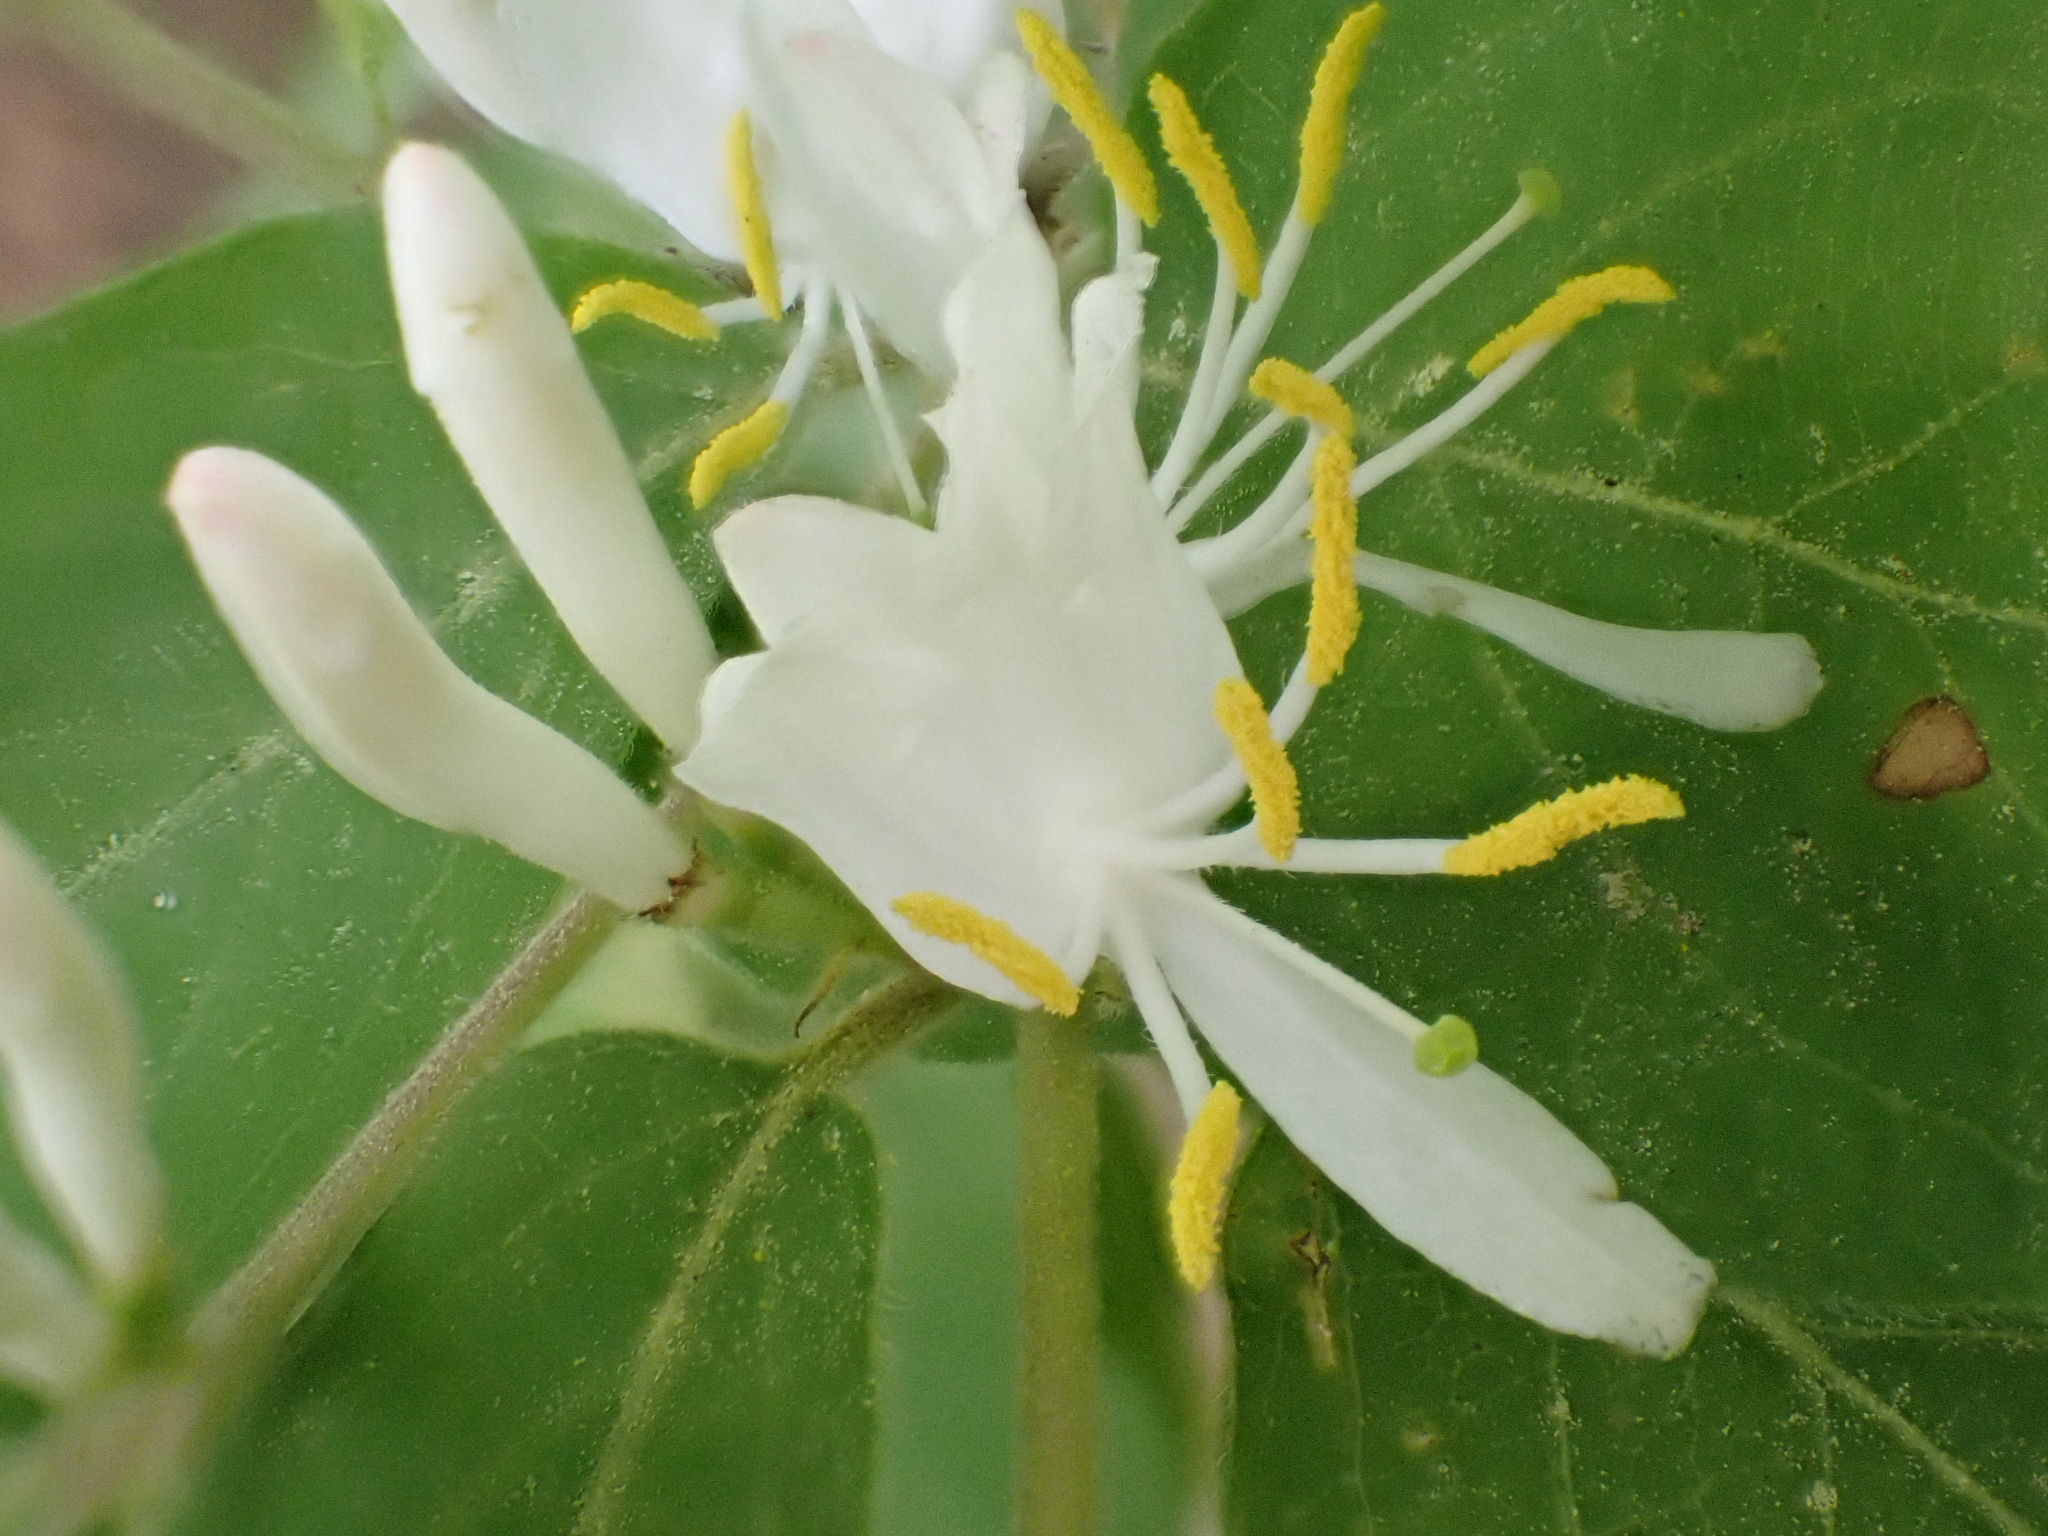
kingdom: Plantae
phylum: Tracheophyta
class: Magnoliopsida
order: Dipsacales
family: Caprifoliaceae
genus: Lonicera
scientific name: Lonicera maackii
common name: Amur honeysuckle
